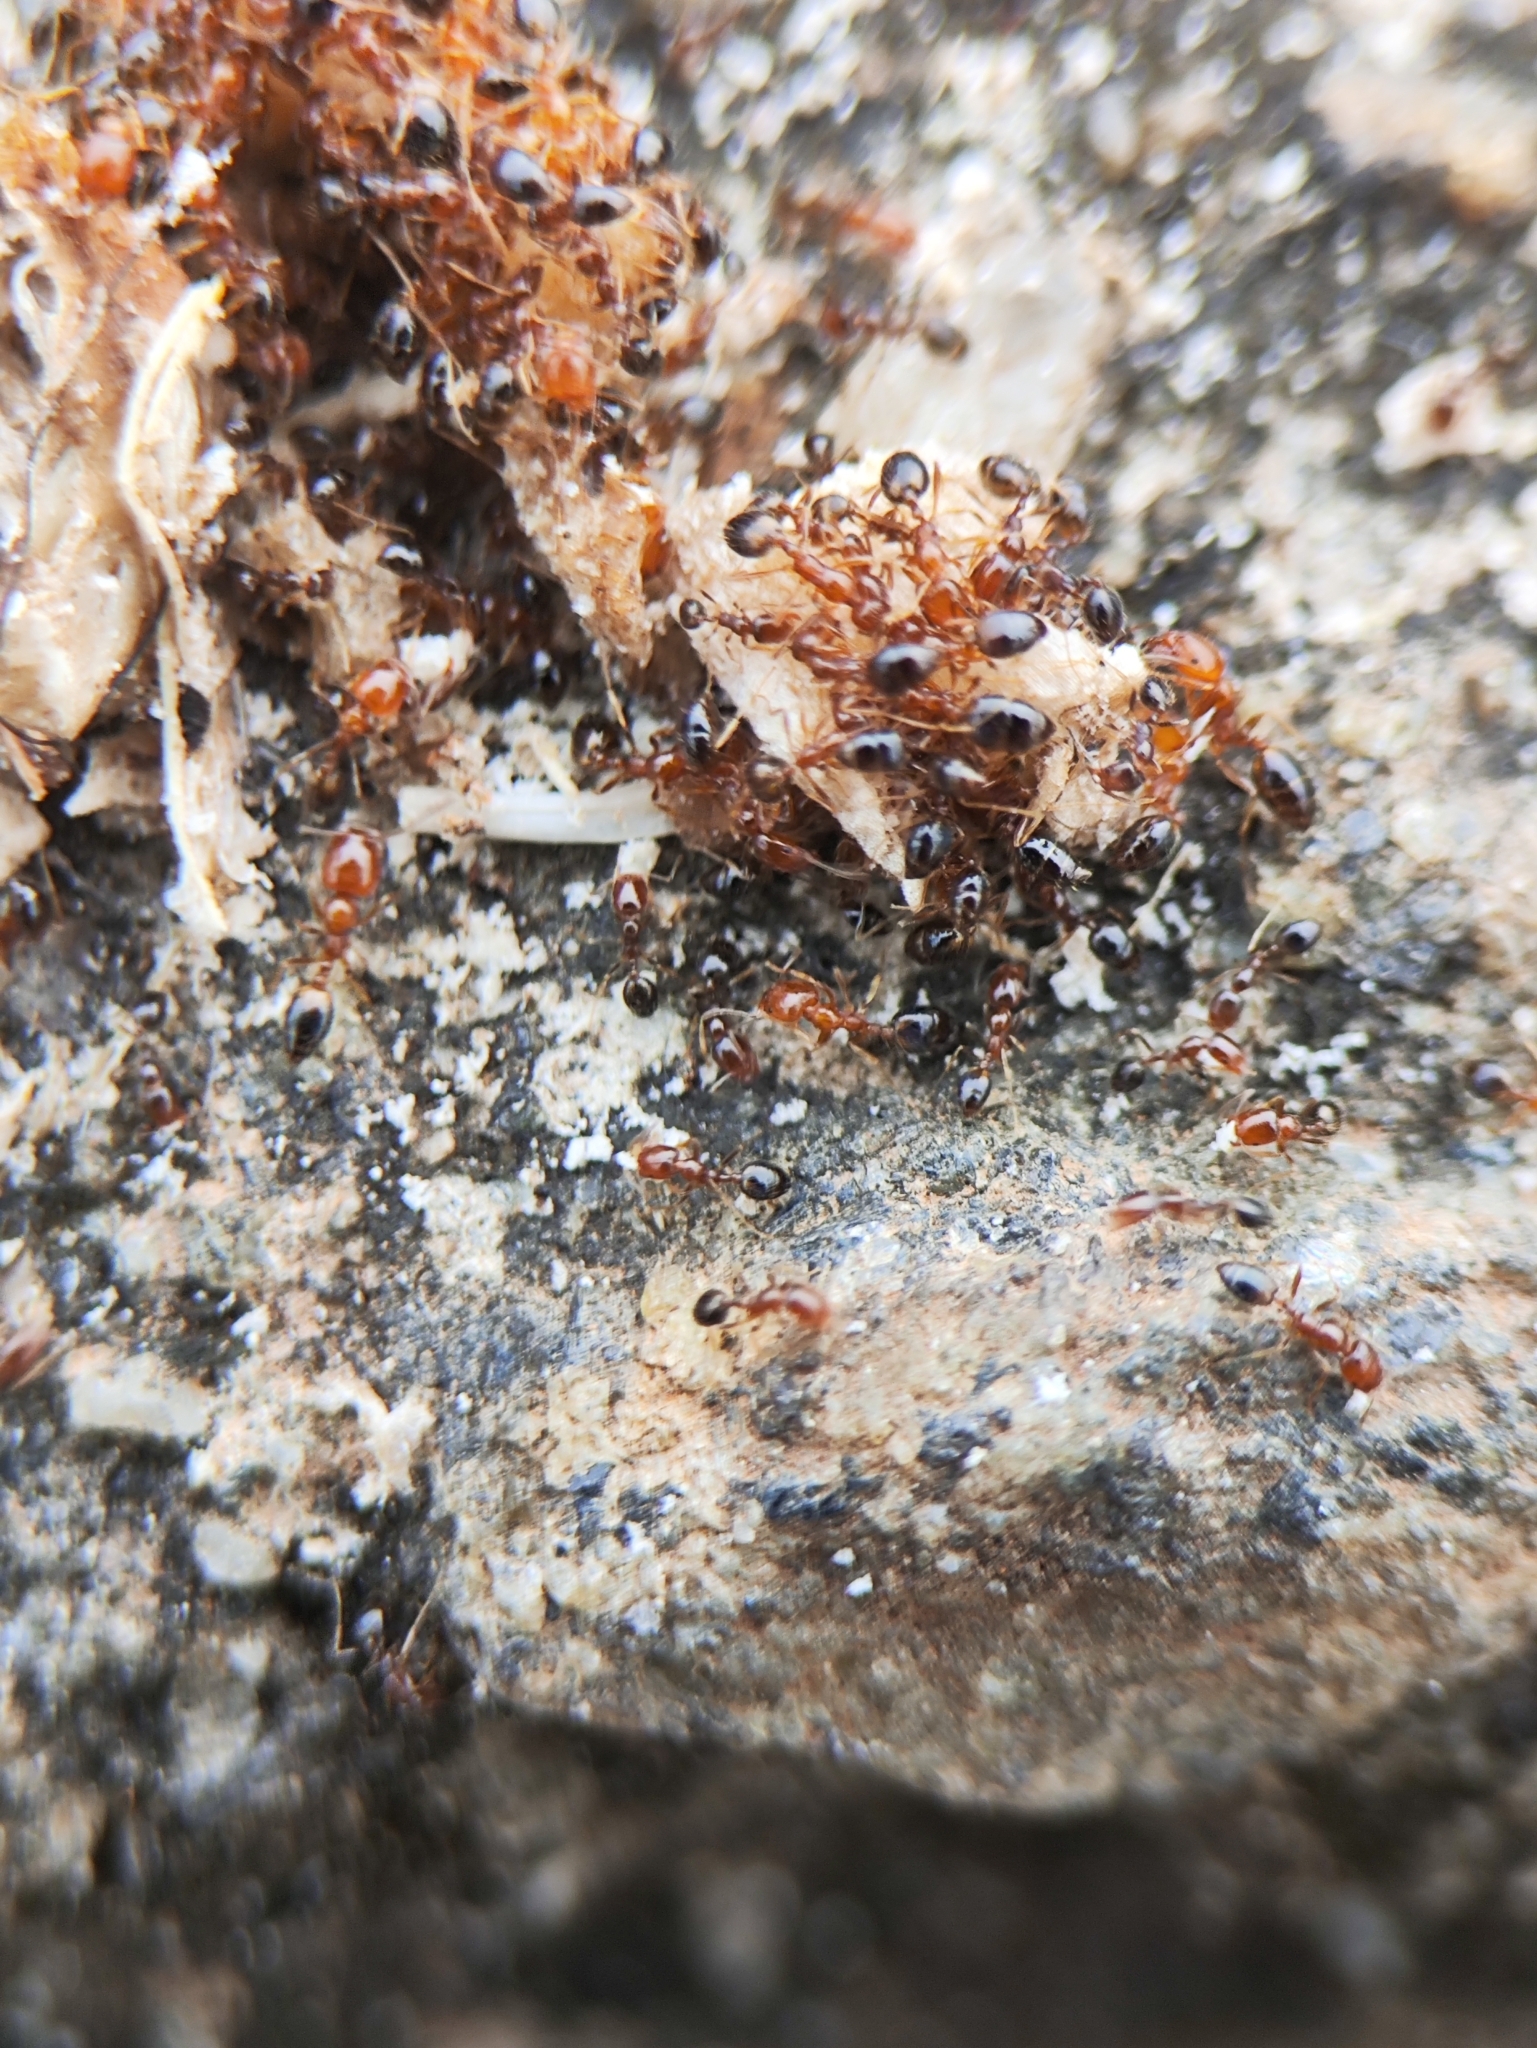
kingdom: Animalia
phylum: Arthropoda
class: Insecta
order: Hymenoptera
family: Formicidae
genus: Monomorium
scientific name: Monomorium destructor
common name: Destructive trailing ant
